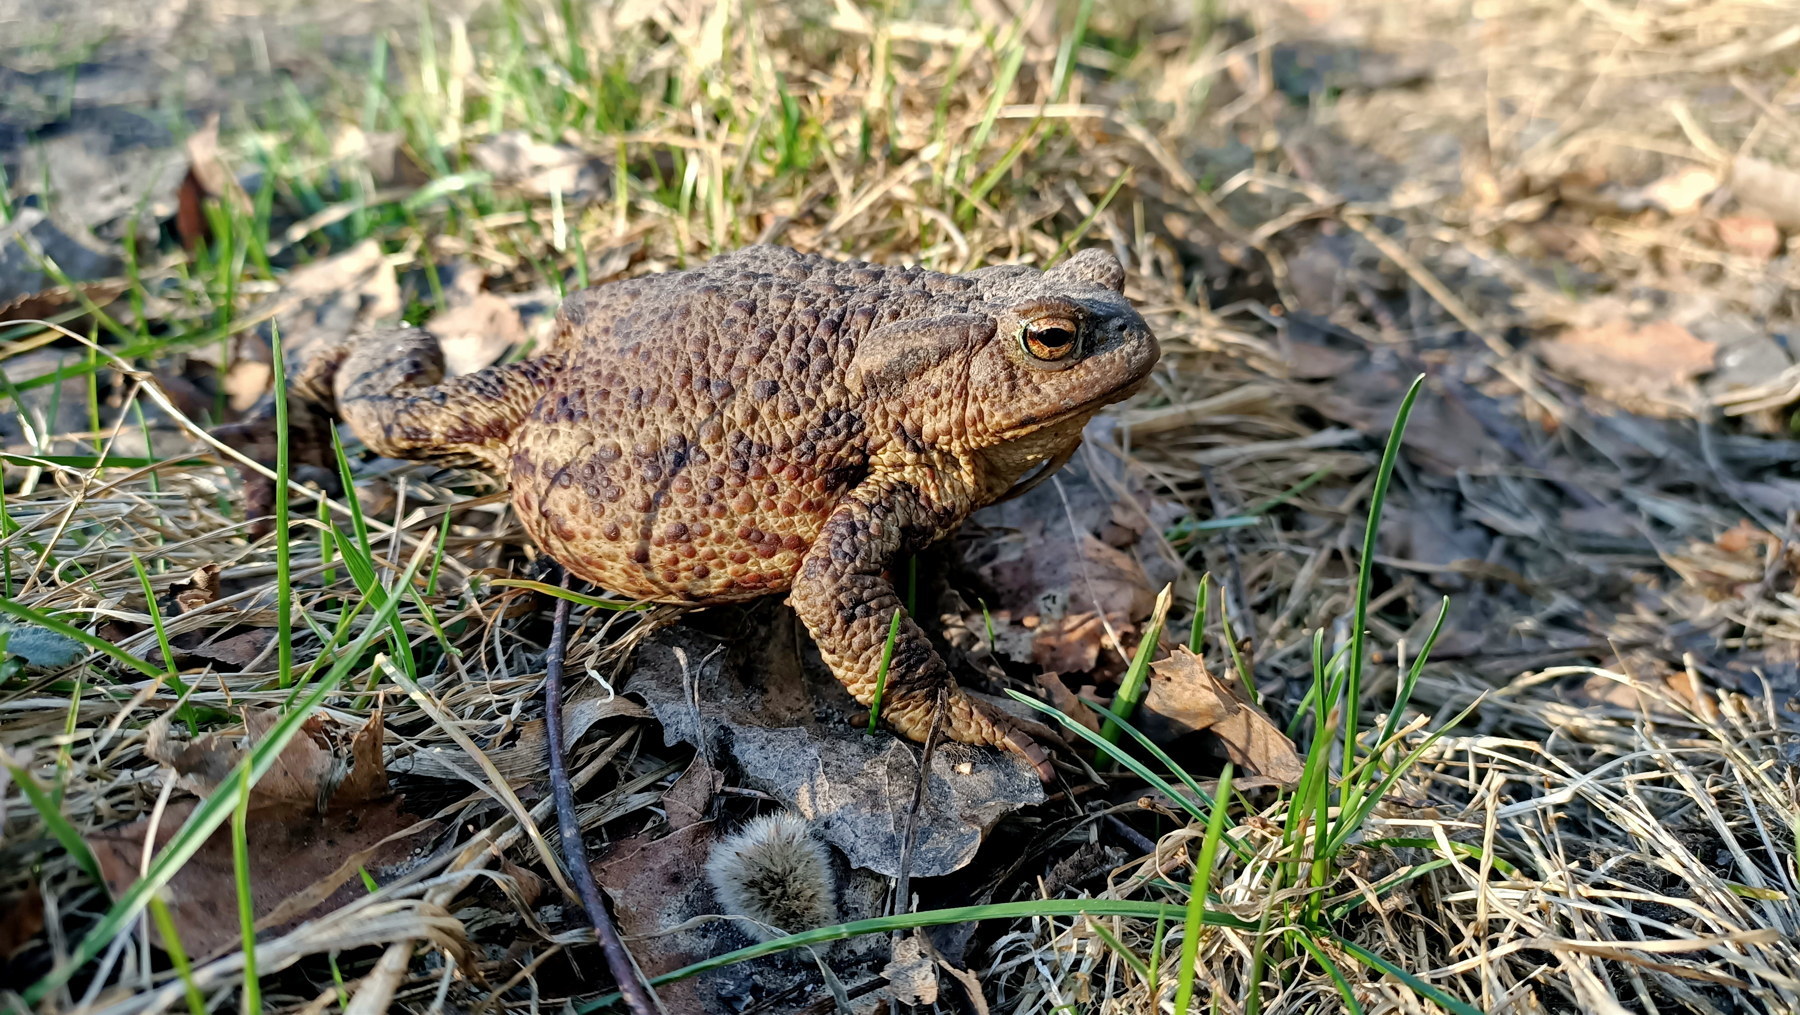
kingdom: Animalia
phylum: Chordata
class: Amphibia
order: Anura
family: Bufonidae
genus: Bufo
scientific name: Bufo bufo
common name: Common toad
